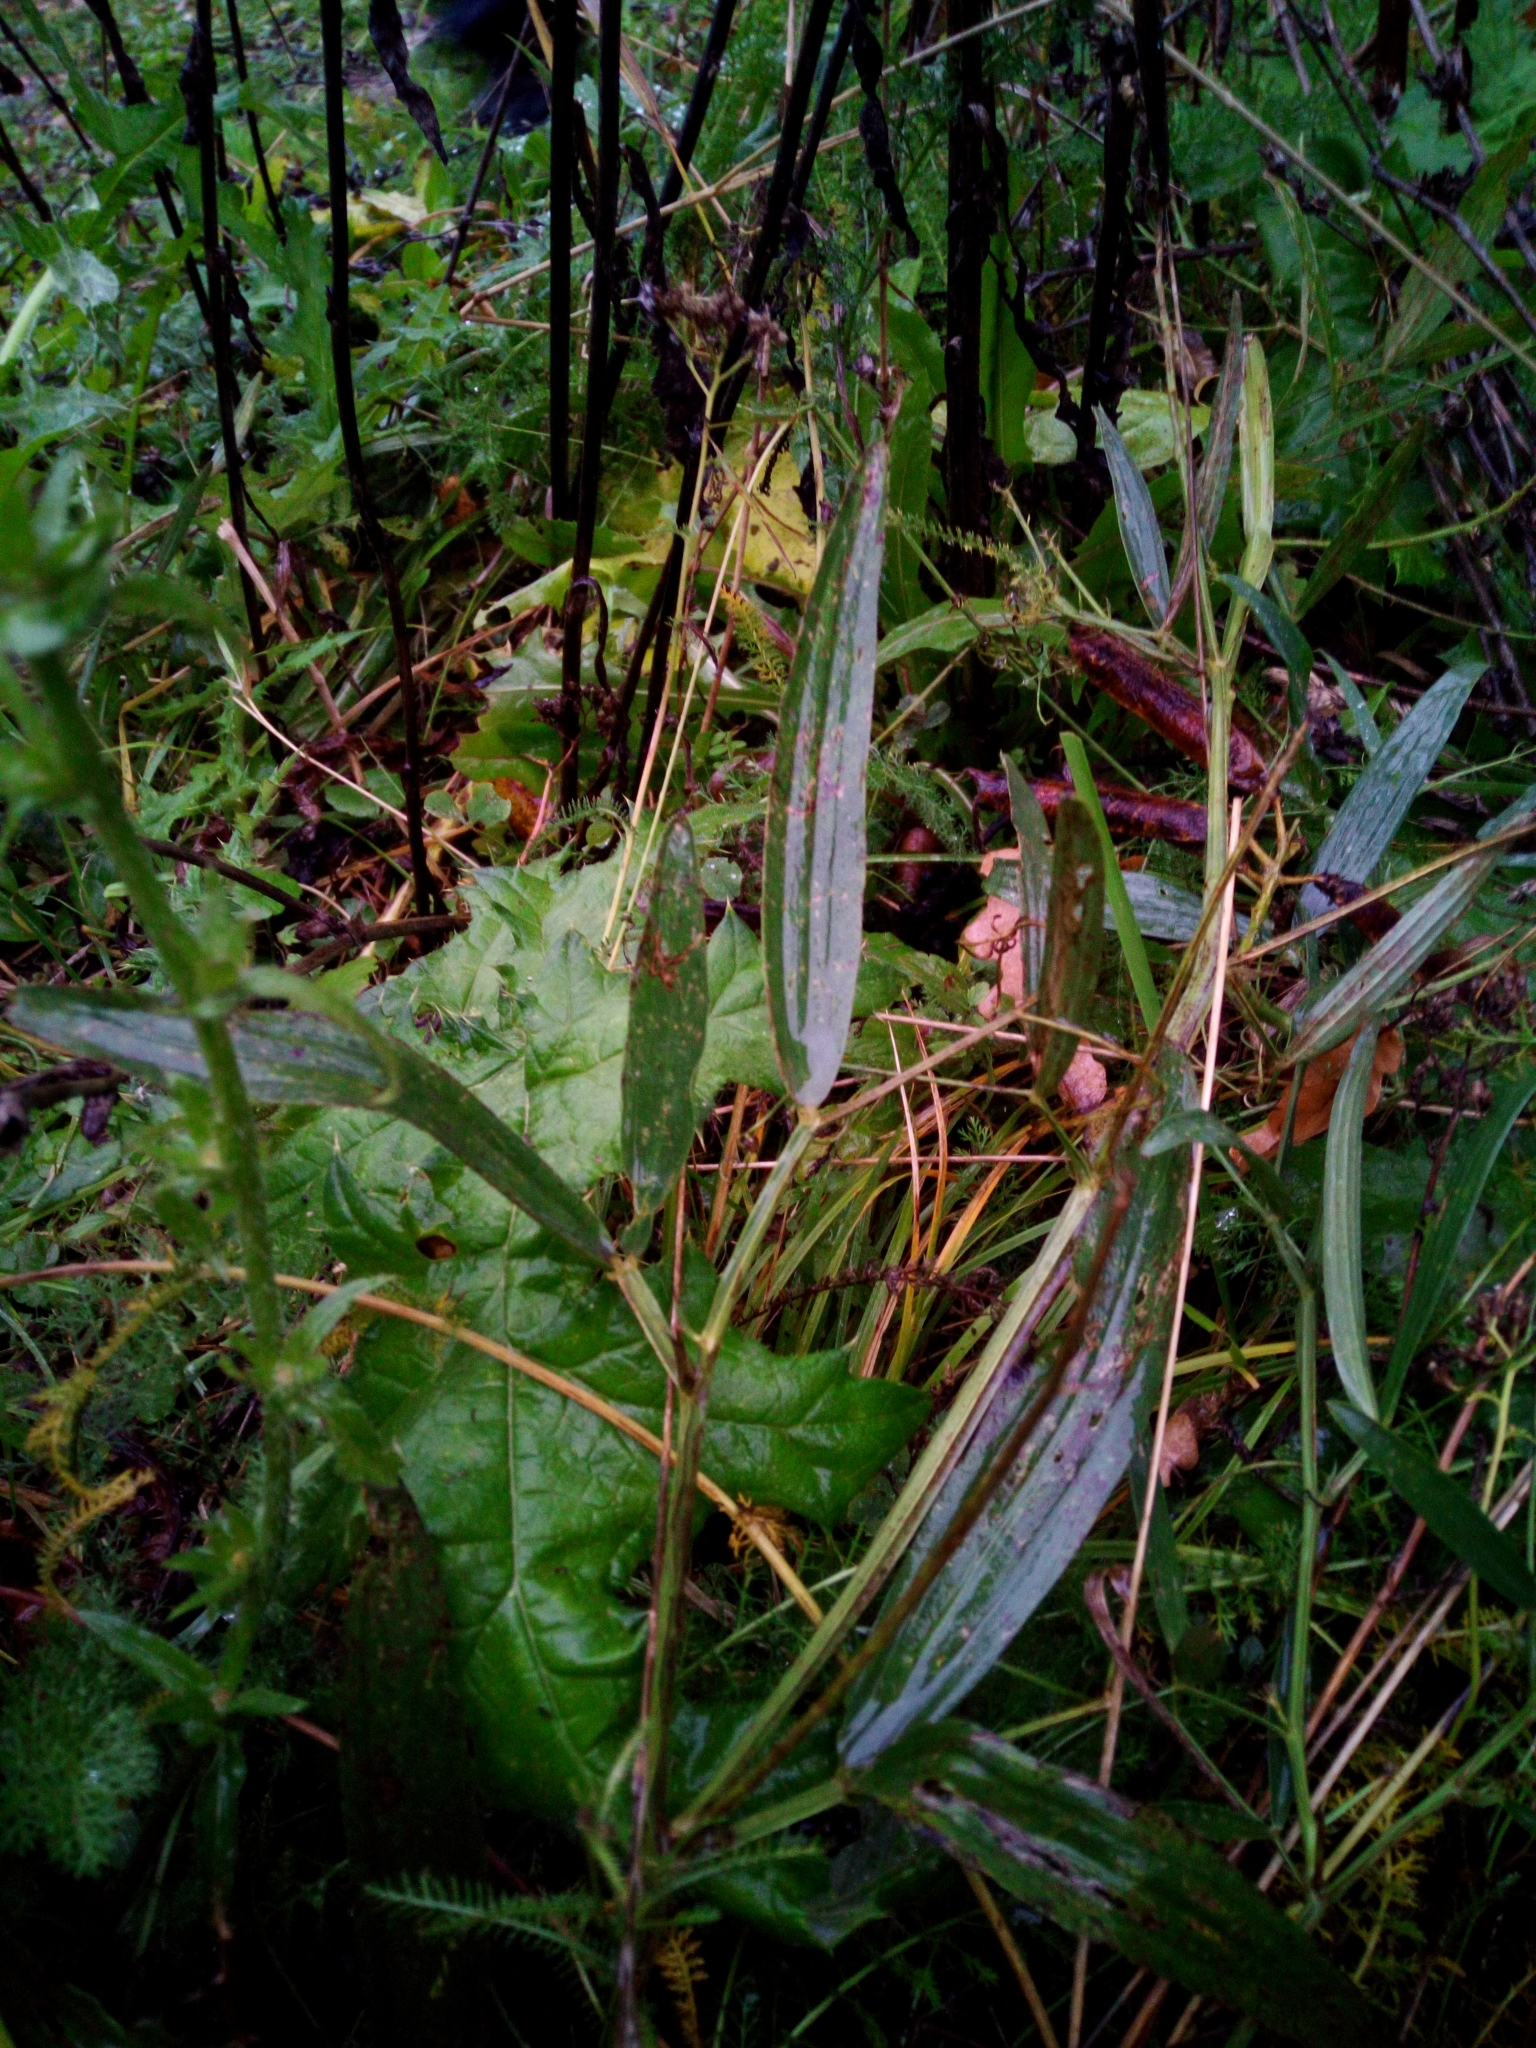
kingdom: Plantae
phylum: Tracheophyta
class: Magnoliopsida
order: Fabales
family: Fabaceae
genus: Lathyrus
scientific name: Lathyrus sylvestris
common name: Flat pea
